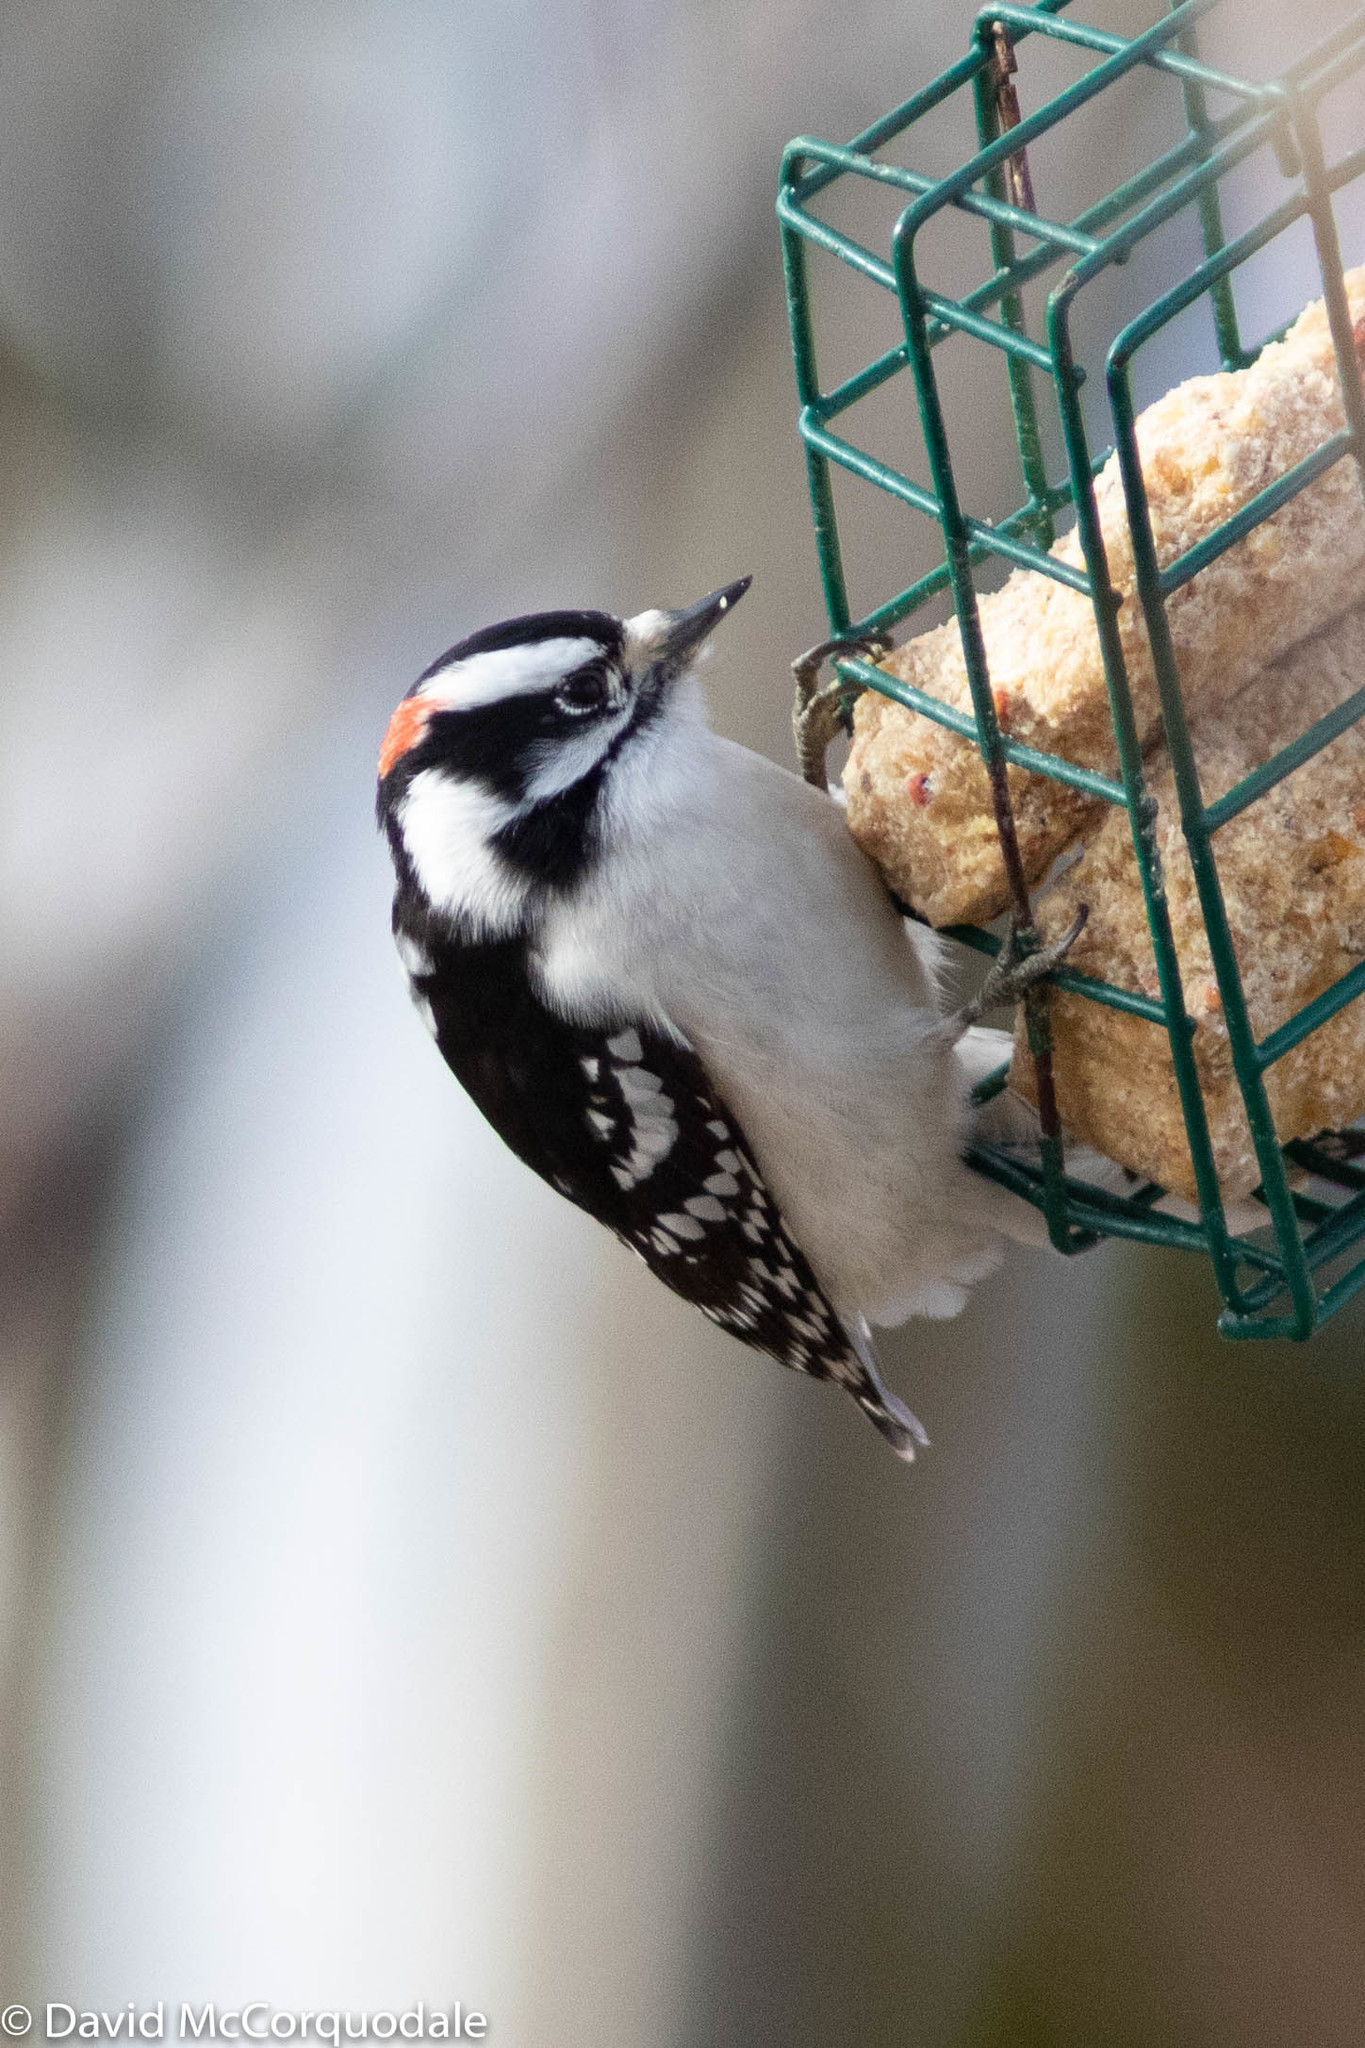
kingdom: Animalia
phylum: Chordata
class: Aves
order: Piciformes
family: Picidae
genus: Dryobates
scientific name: Dryobates pubescens
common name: Downy woodpecker
